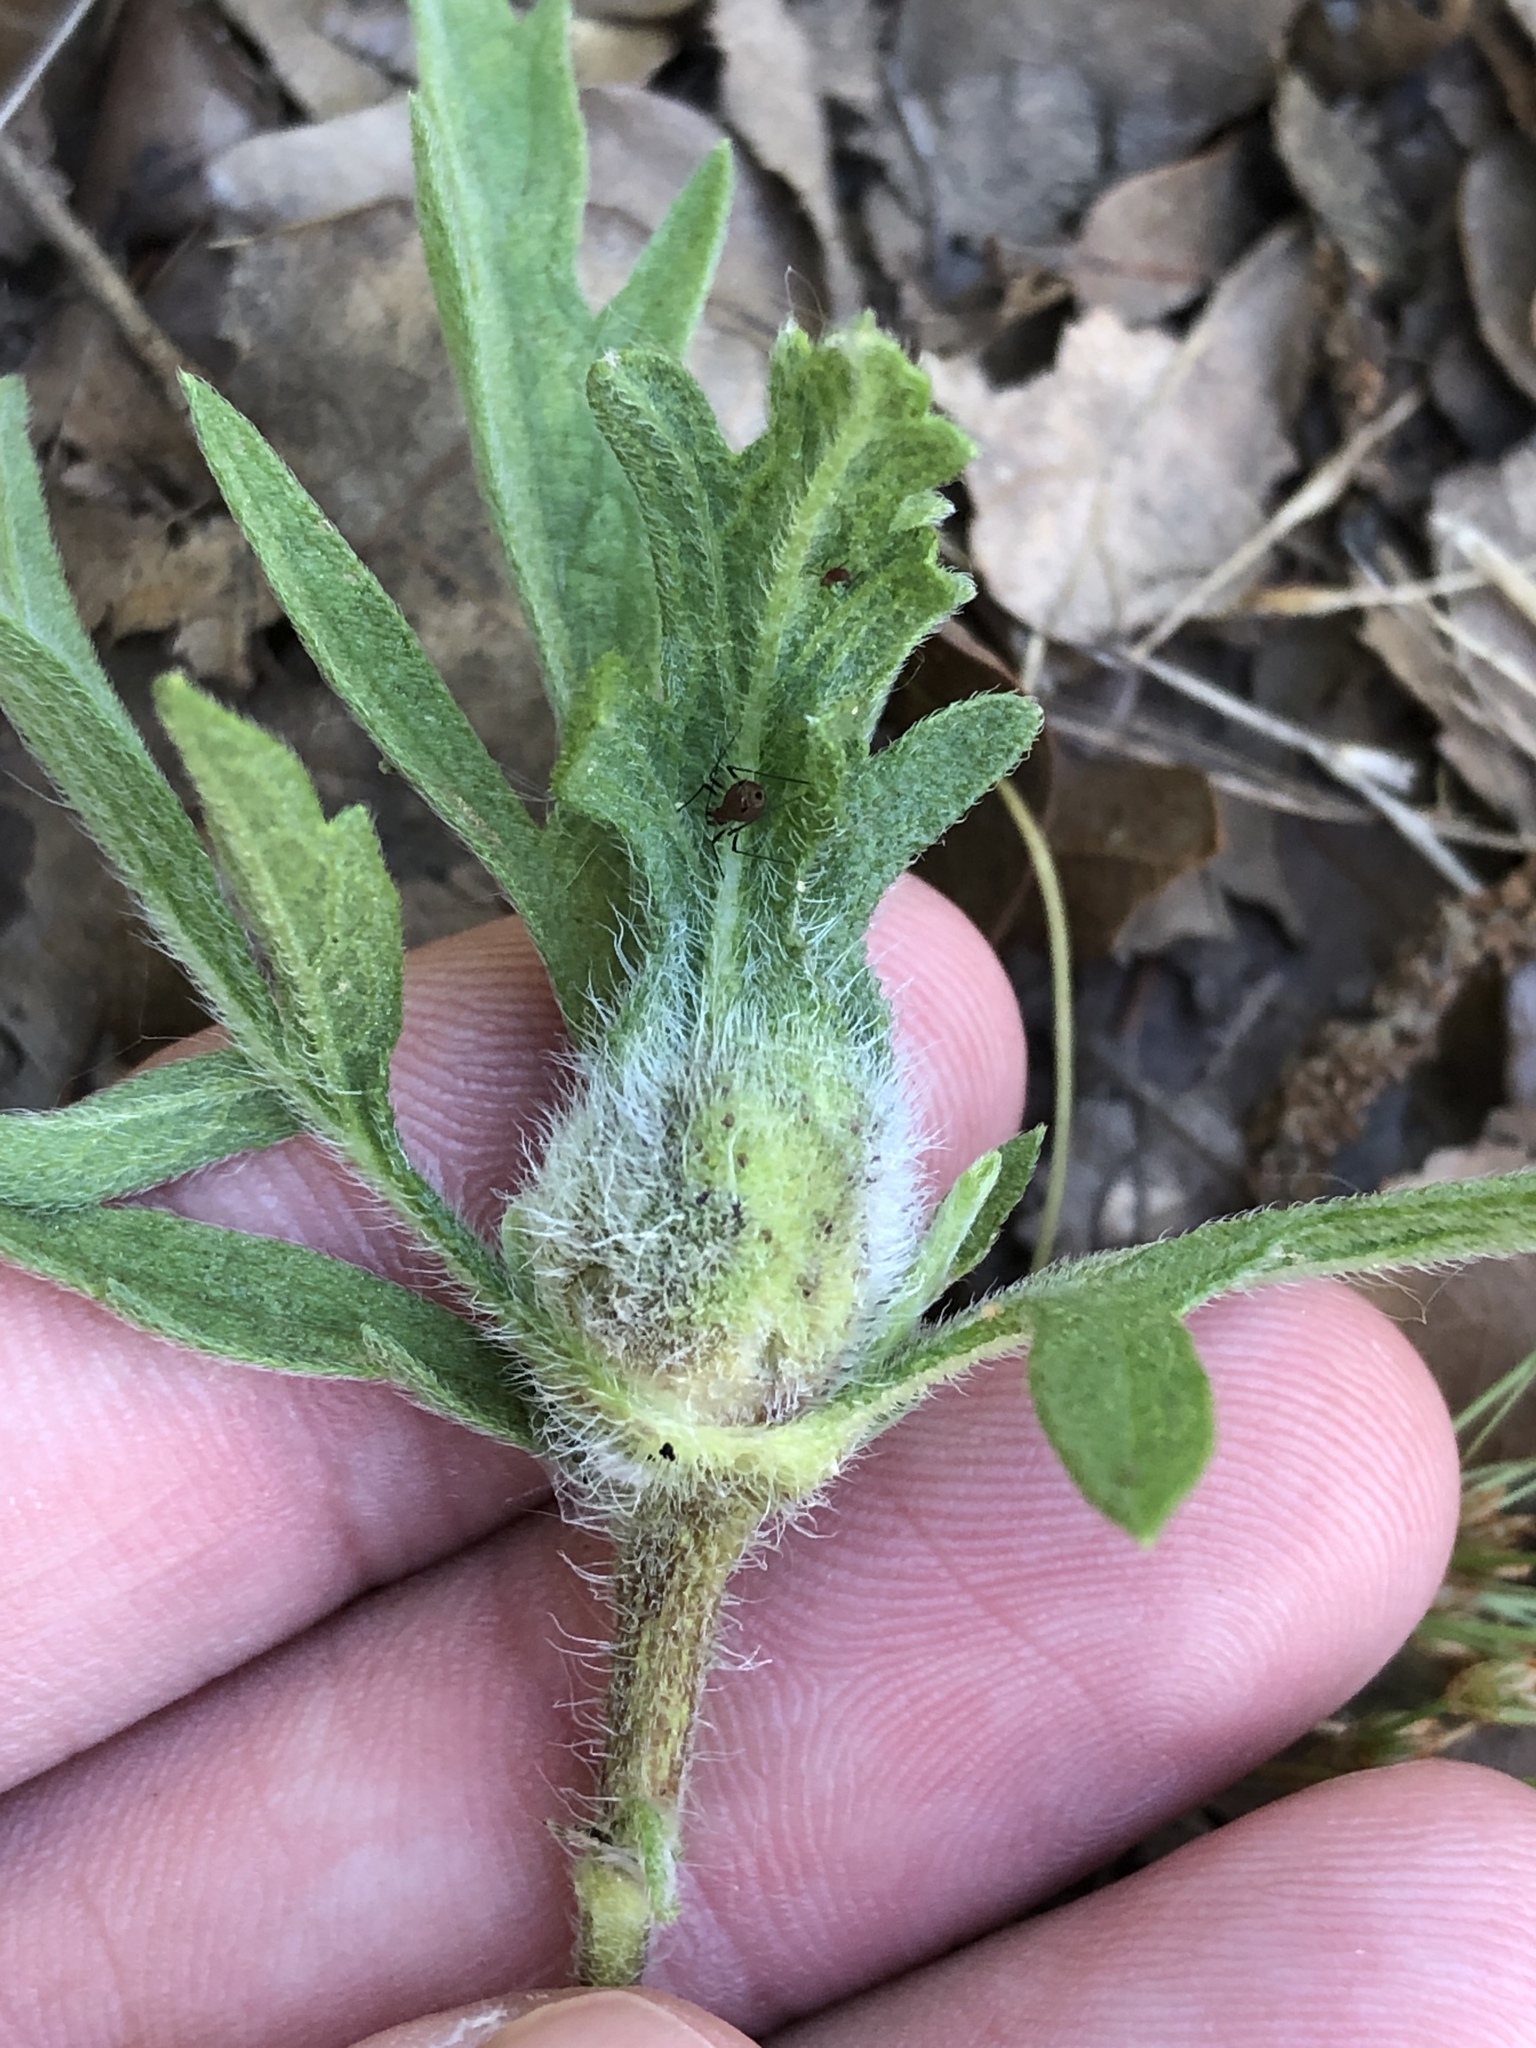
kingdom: Animalia
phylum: Arthropoda
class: Insecta
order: Diptera
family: Cecidomyiidae
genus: Asphondylia
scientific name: Asphondylia ambrosiae
